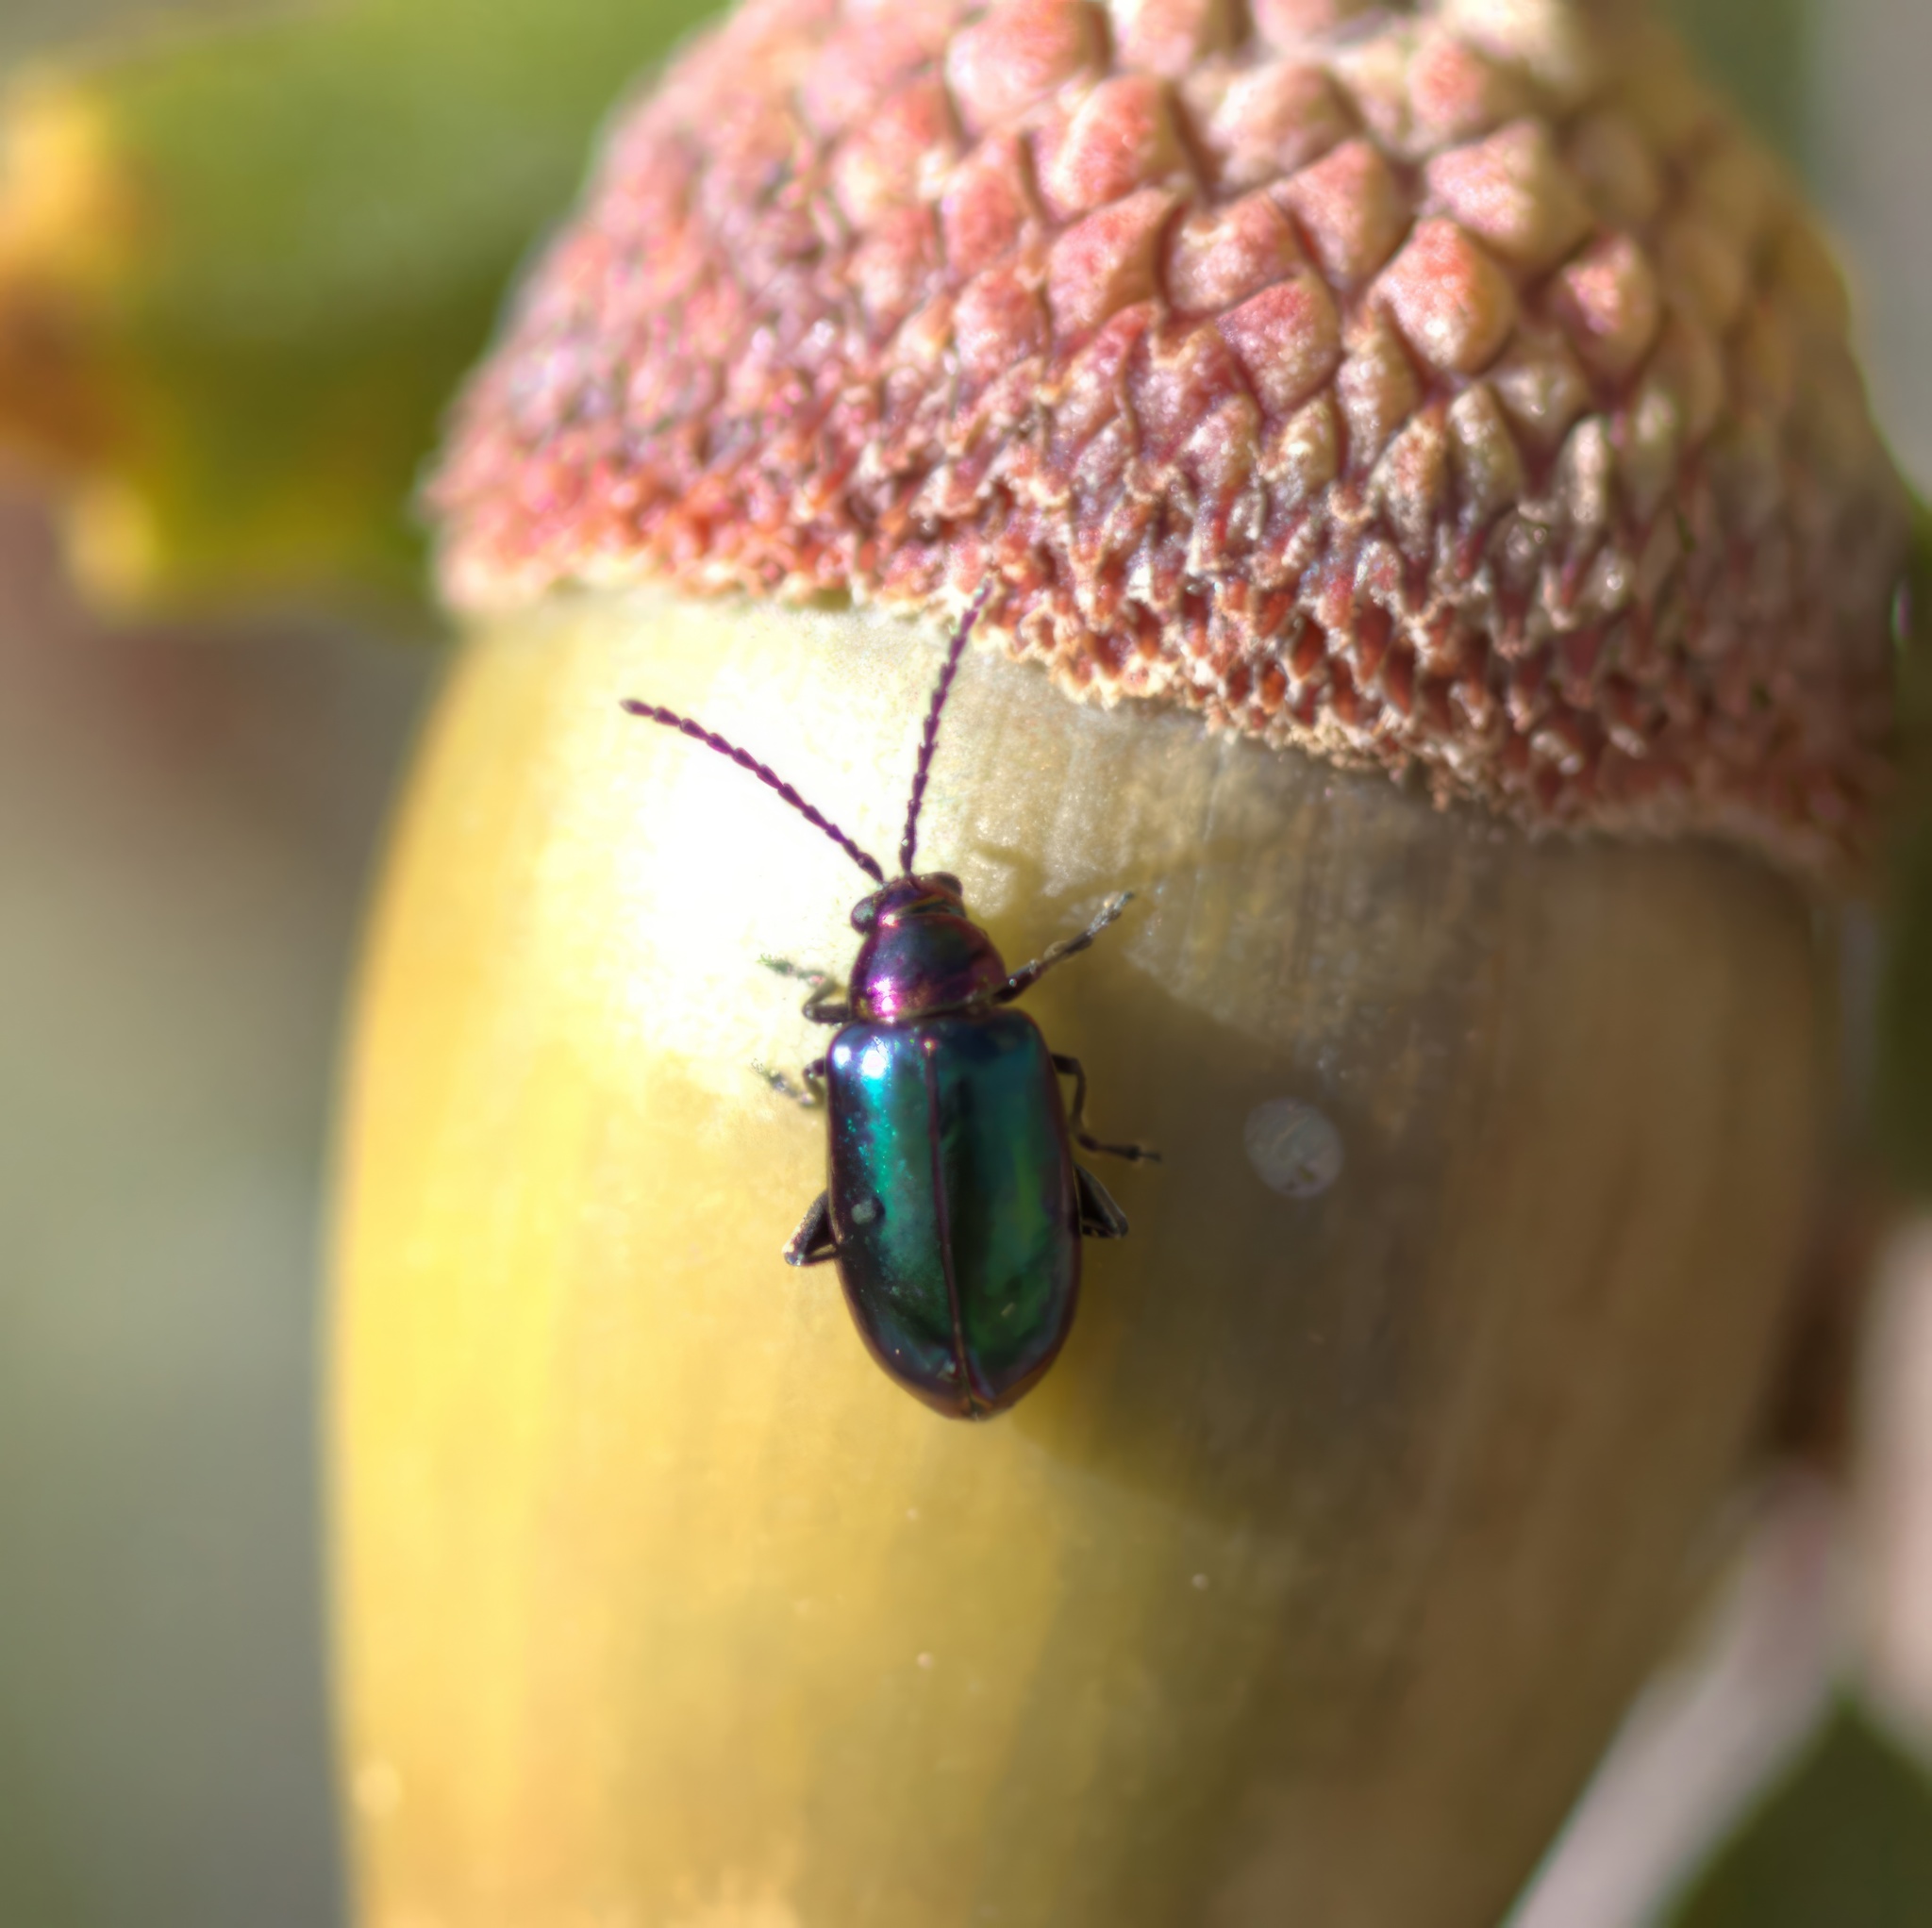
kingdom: Animalia
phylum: Arthropoda
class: Insecta
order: Coleoptera
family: Chrysomelidae
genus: Altica
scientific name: Altica torquata
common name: Leaf beetle
